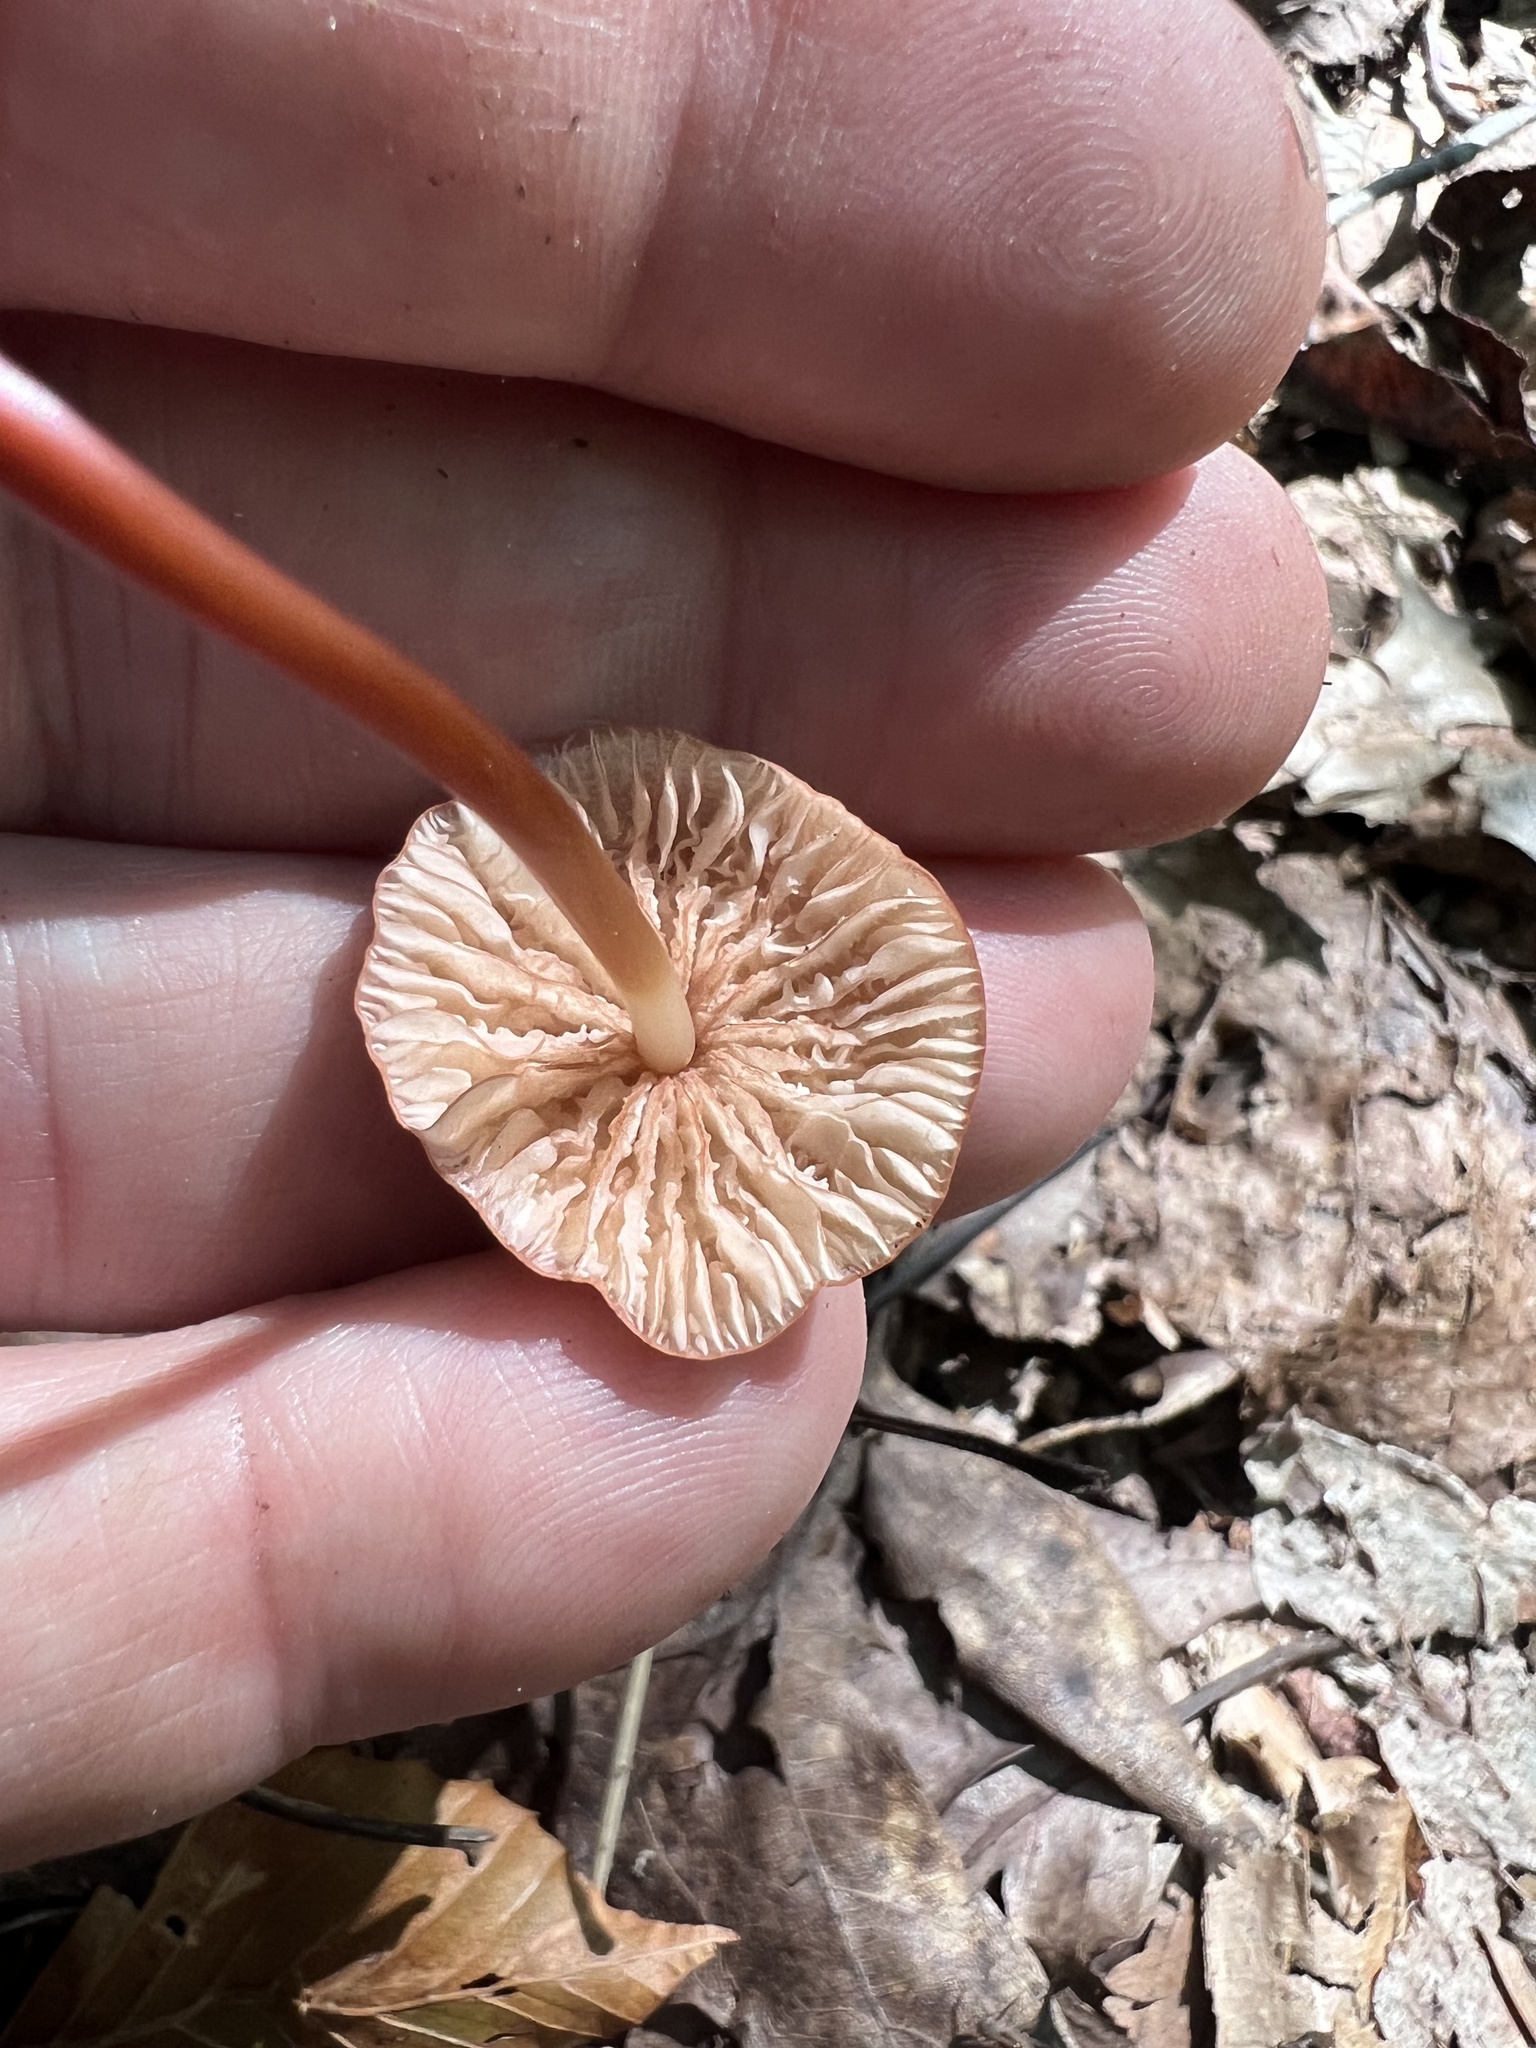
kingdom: Fungi
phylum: Basidiomycota
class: Agaricomycetes
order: Agaricales
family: Marasmiaceae
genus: Marasmius
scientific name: Marasmius cohaerens
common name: Bristled parachute
